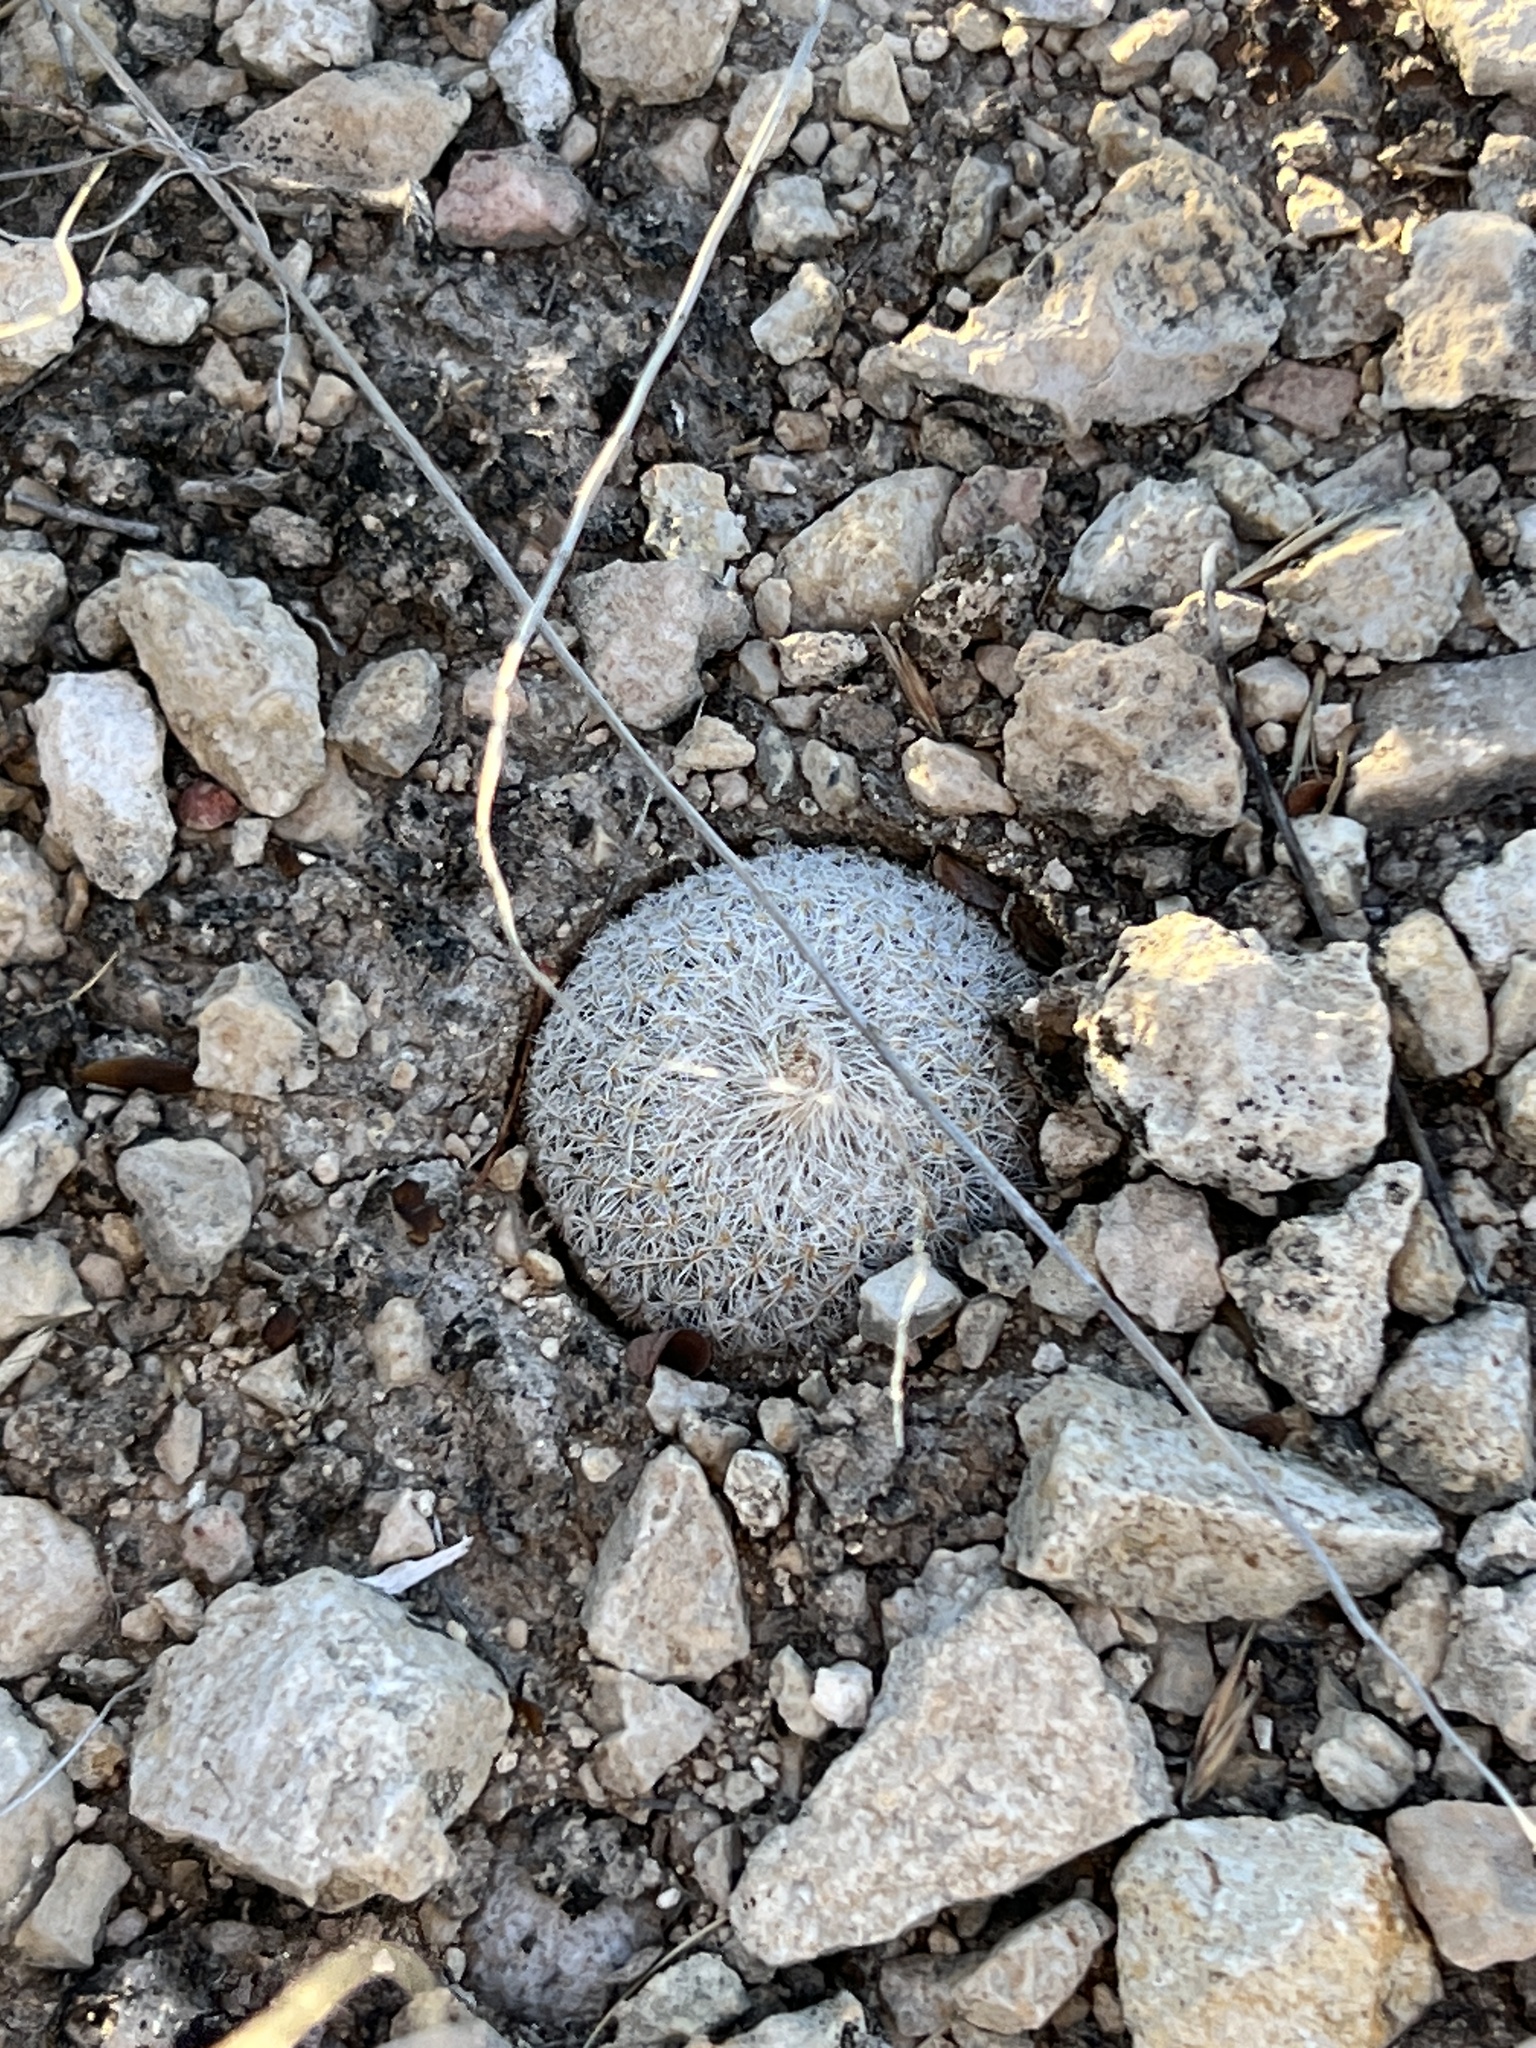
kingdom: Plantae
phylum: Tracheophyta
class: Magnoliopsida
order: Caryophyllales
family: Cactaceae
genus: Epithelantha
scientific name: Epithelantha micromeris
